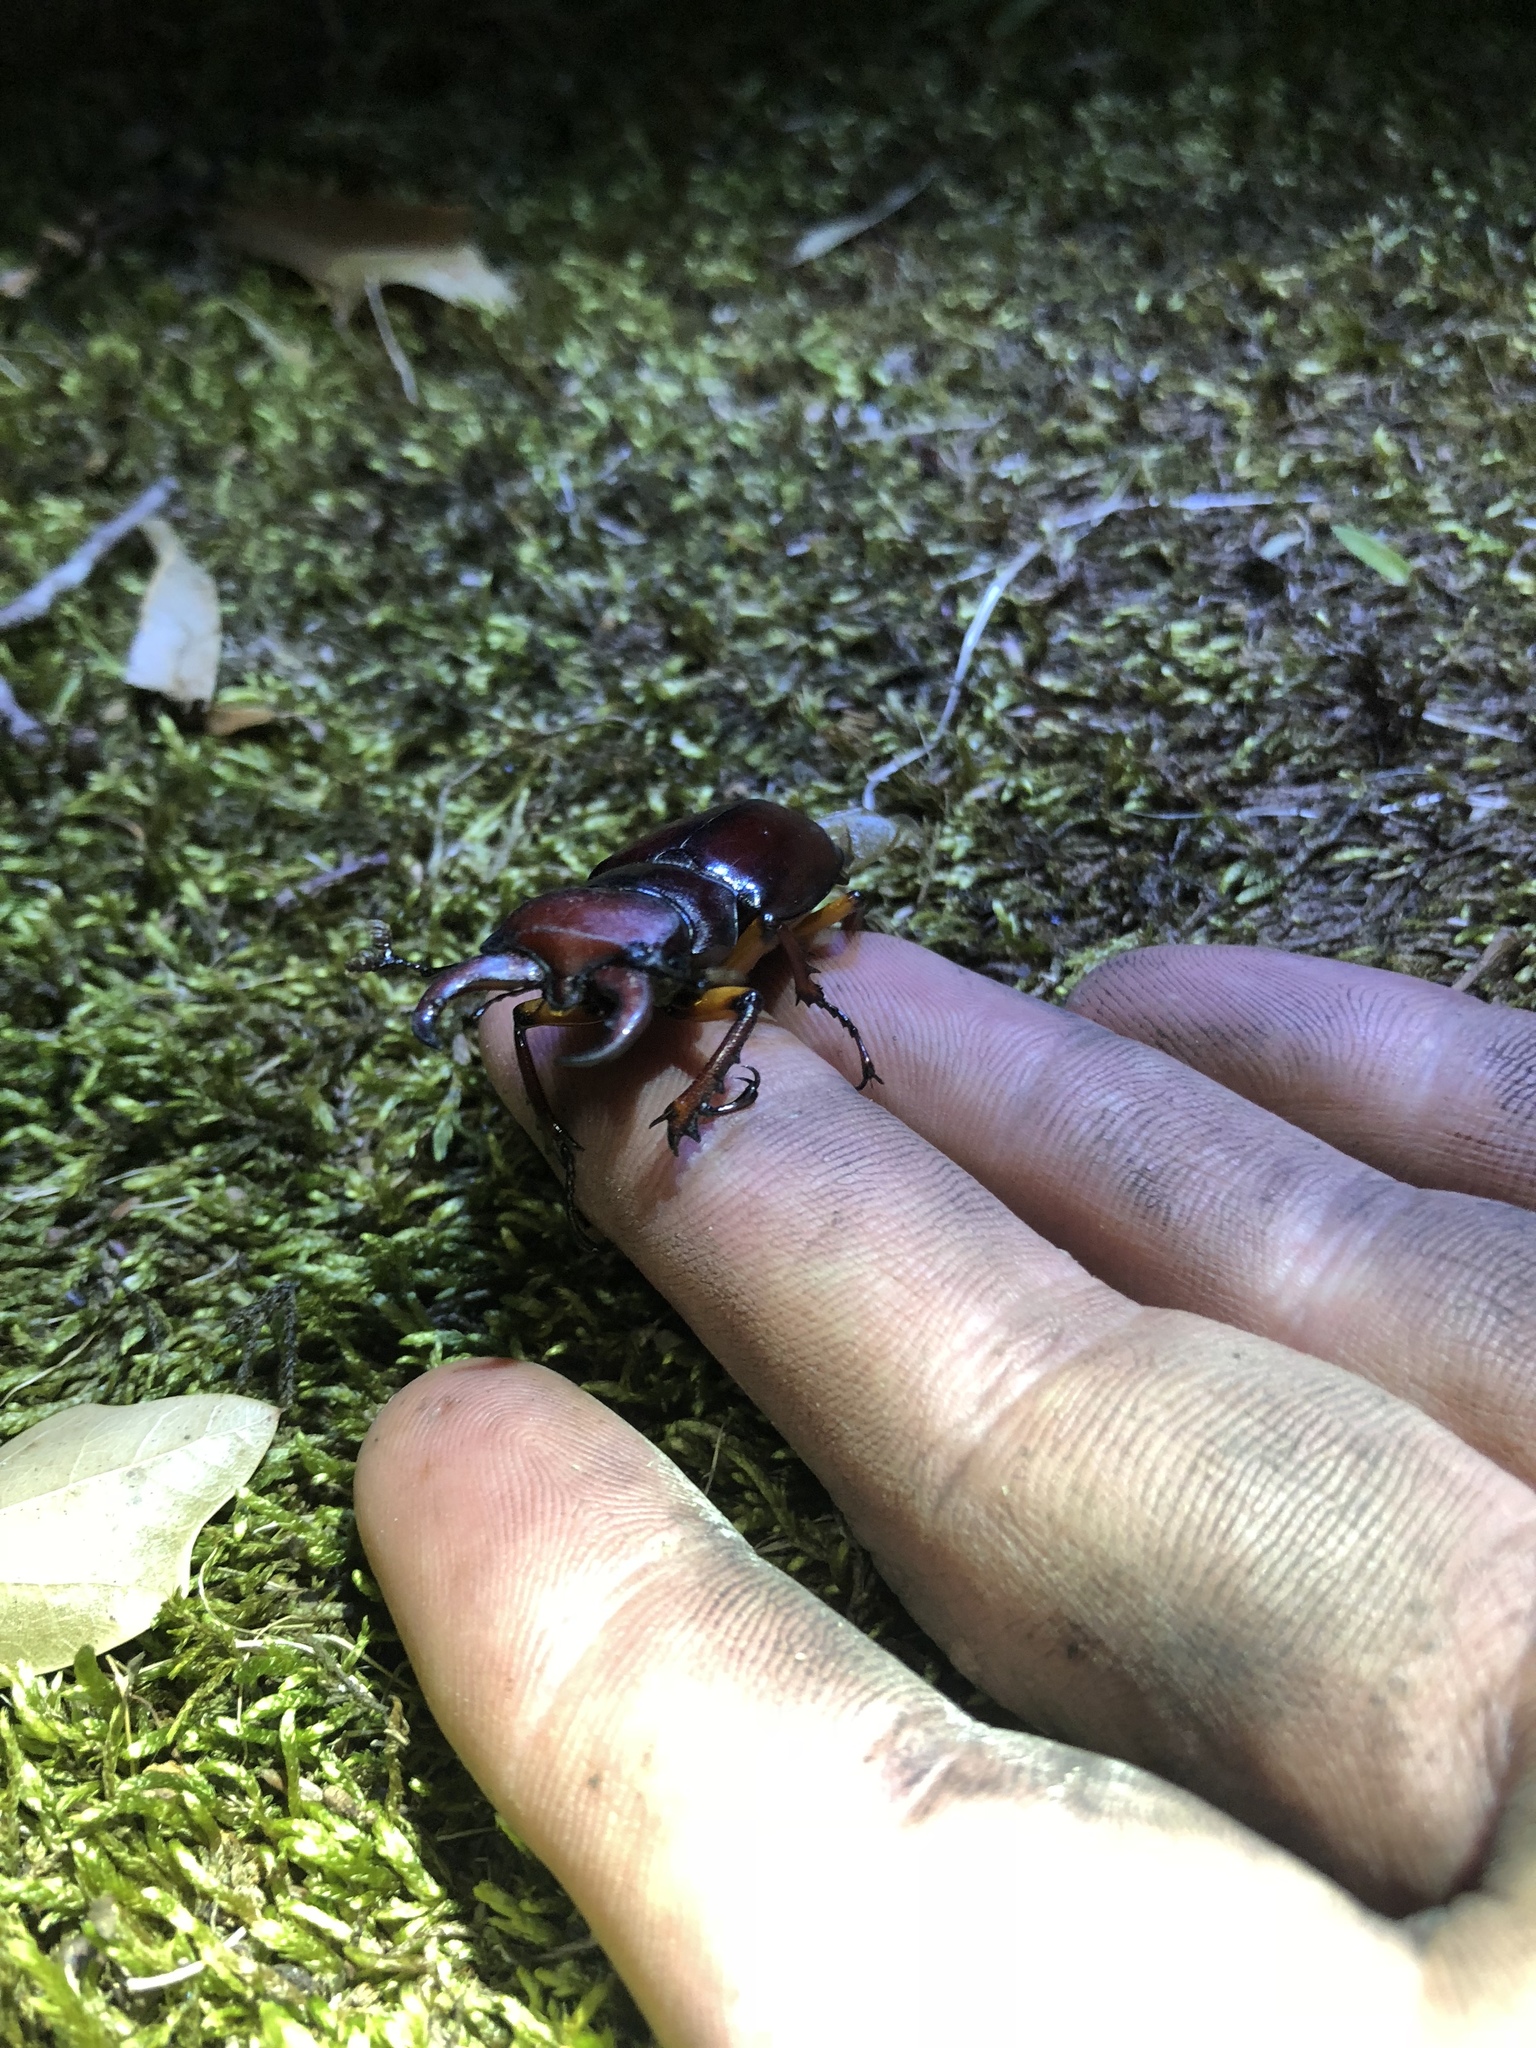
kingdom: Animalia
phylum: Arthropoda
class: Insecta
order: Coleoptera
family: Lucanidae
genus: Lucanus
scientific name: Lucanus capreolus
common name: Stag beetle
